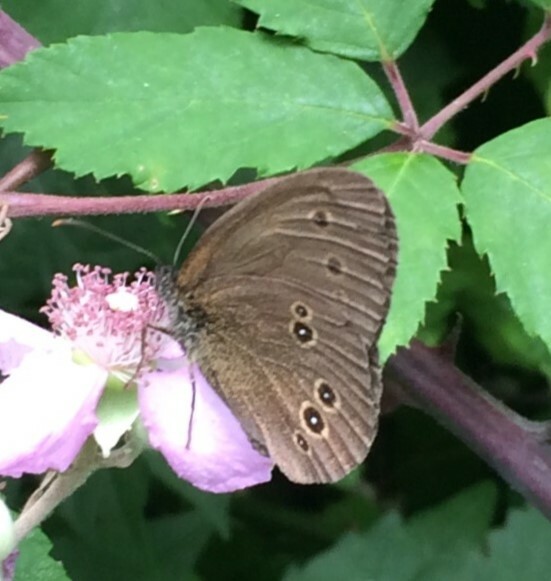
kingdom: Animalia
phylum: Arthropoda
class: Insecta
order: Lepidoptera
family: Nymphalidae
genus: Aphantopus
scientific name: Aphantopus hyperantus
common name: Ringlet
